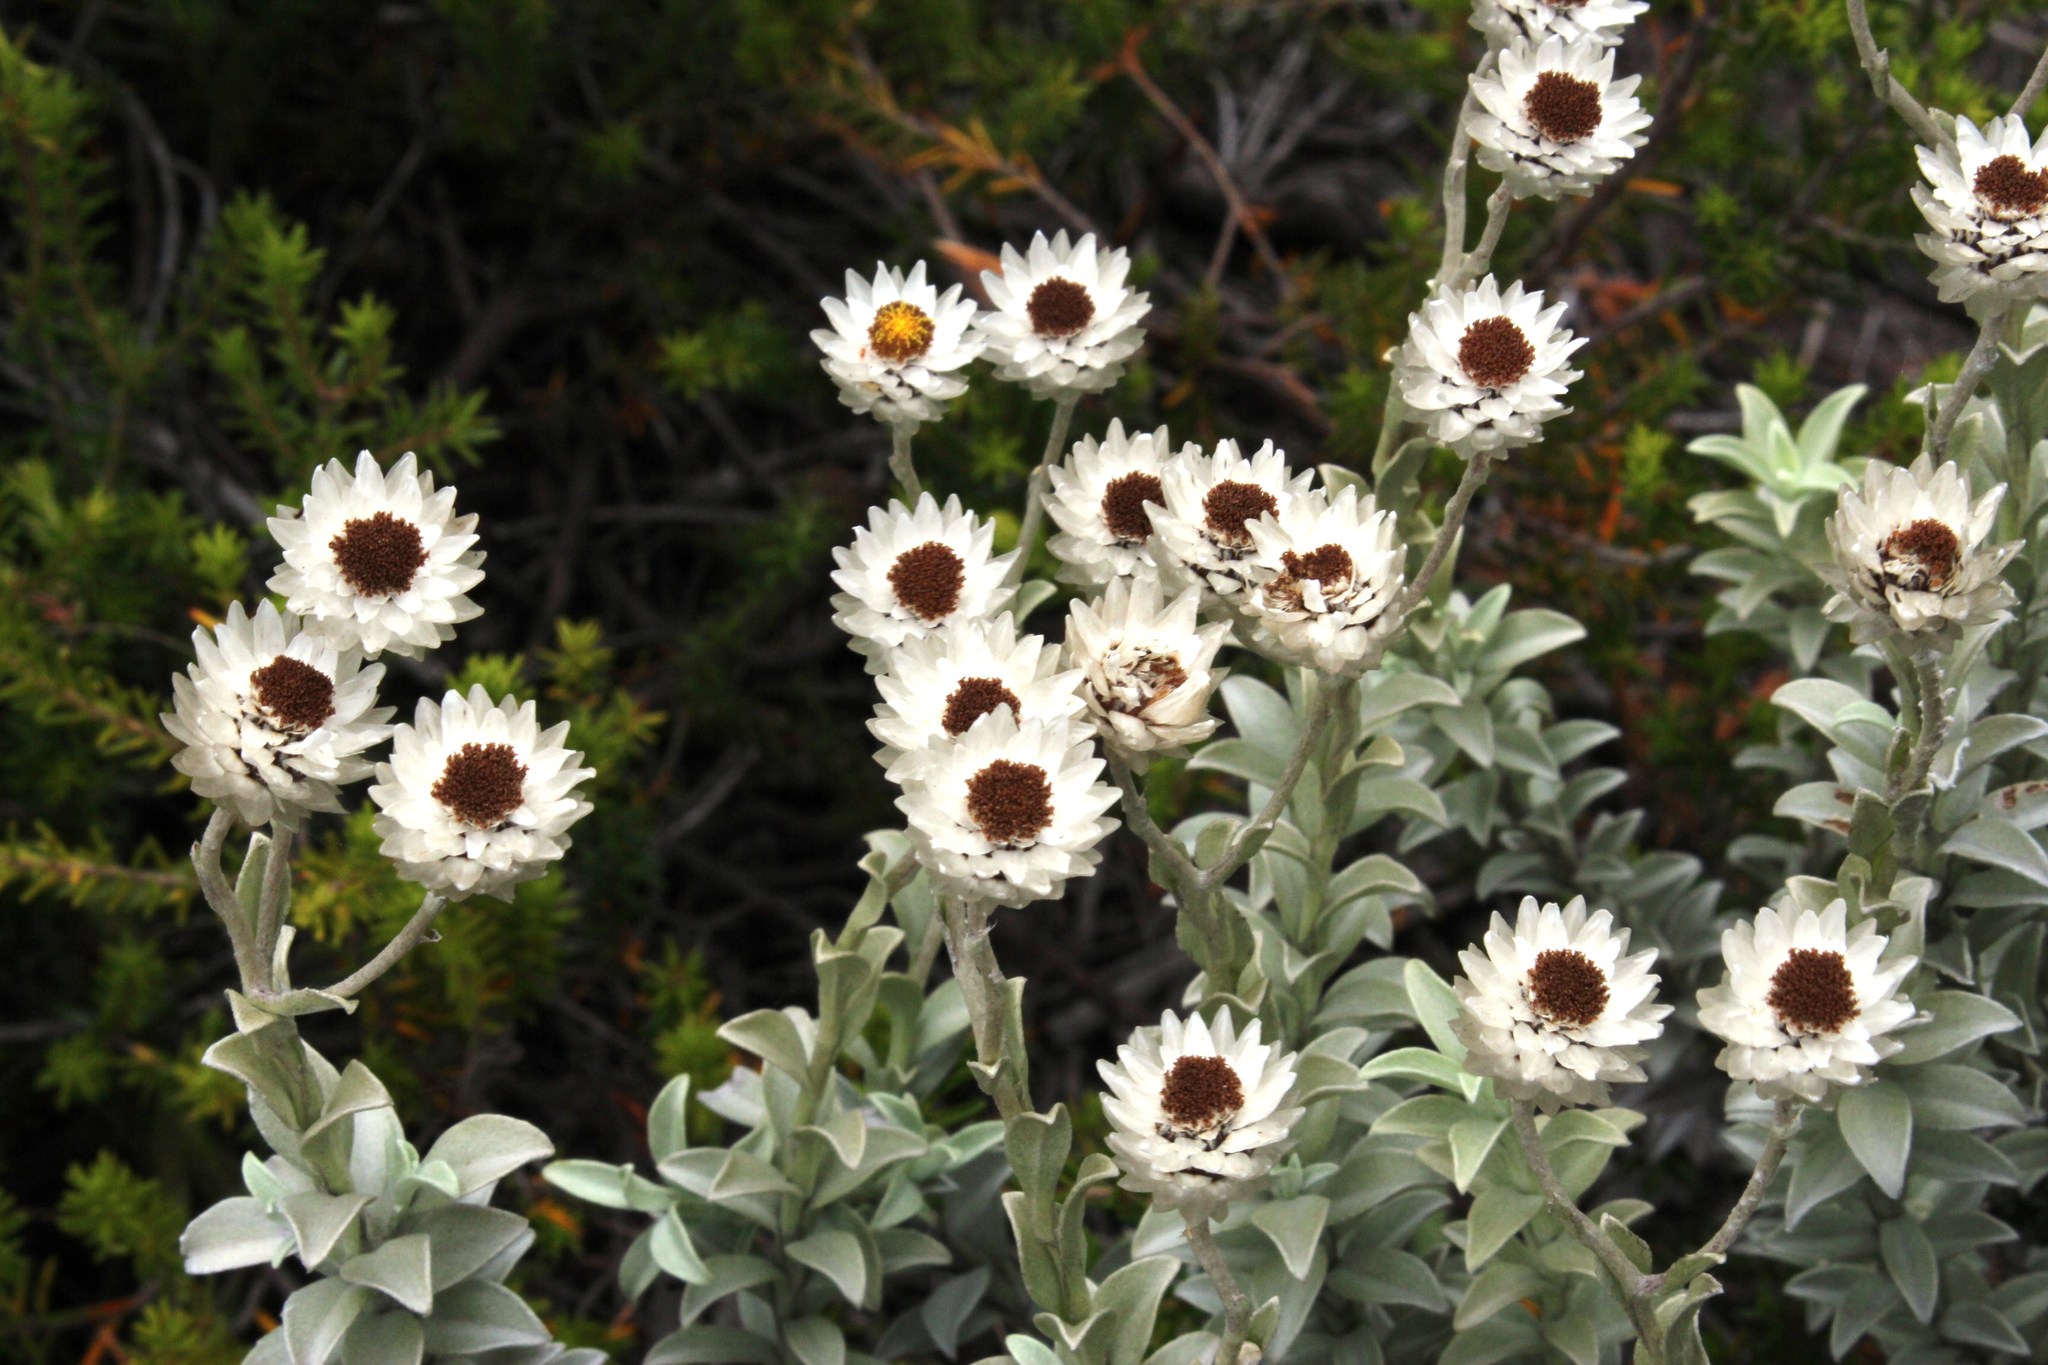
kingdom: Plantae
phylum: Tracheophyta
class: Magnoliopsida
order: Asterales
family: Asteraceae
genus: Achyranthemum
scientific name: Achyranthemum argenteum
